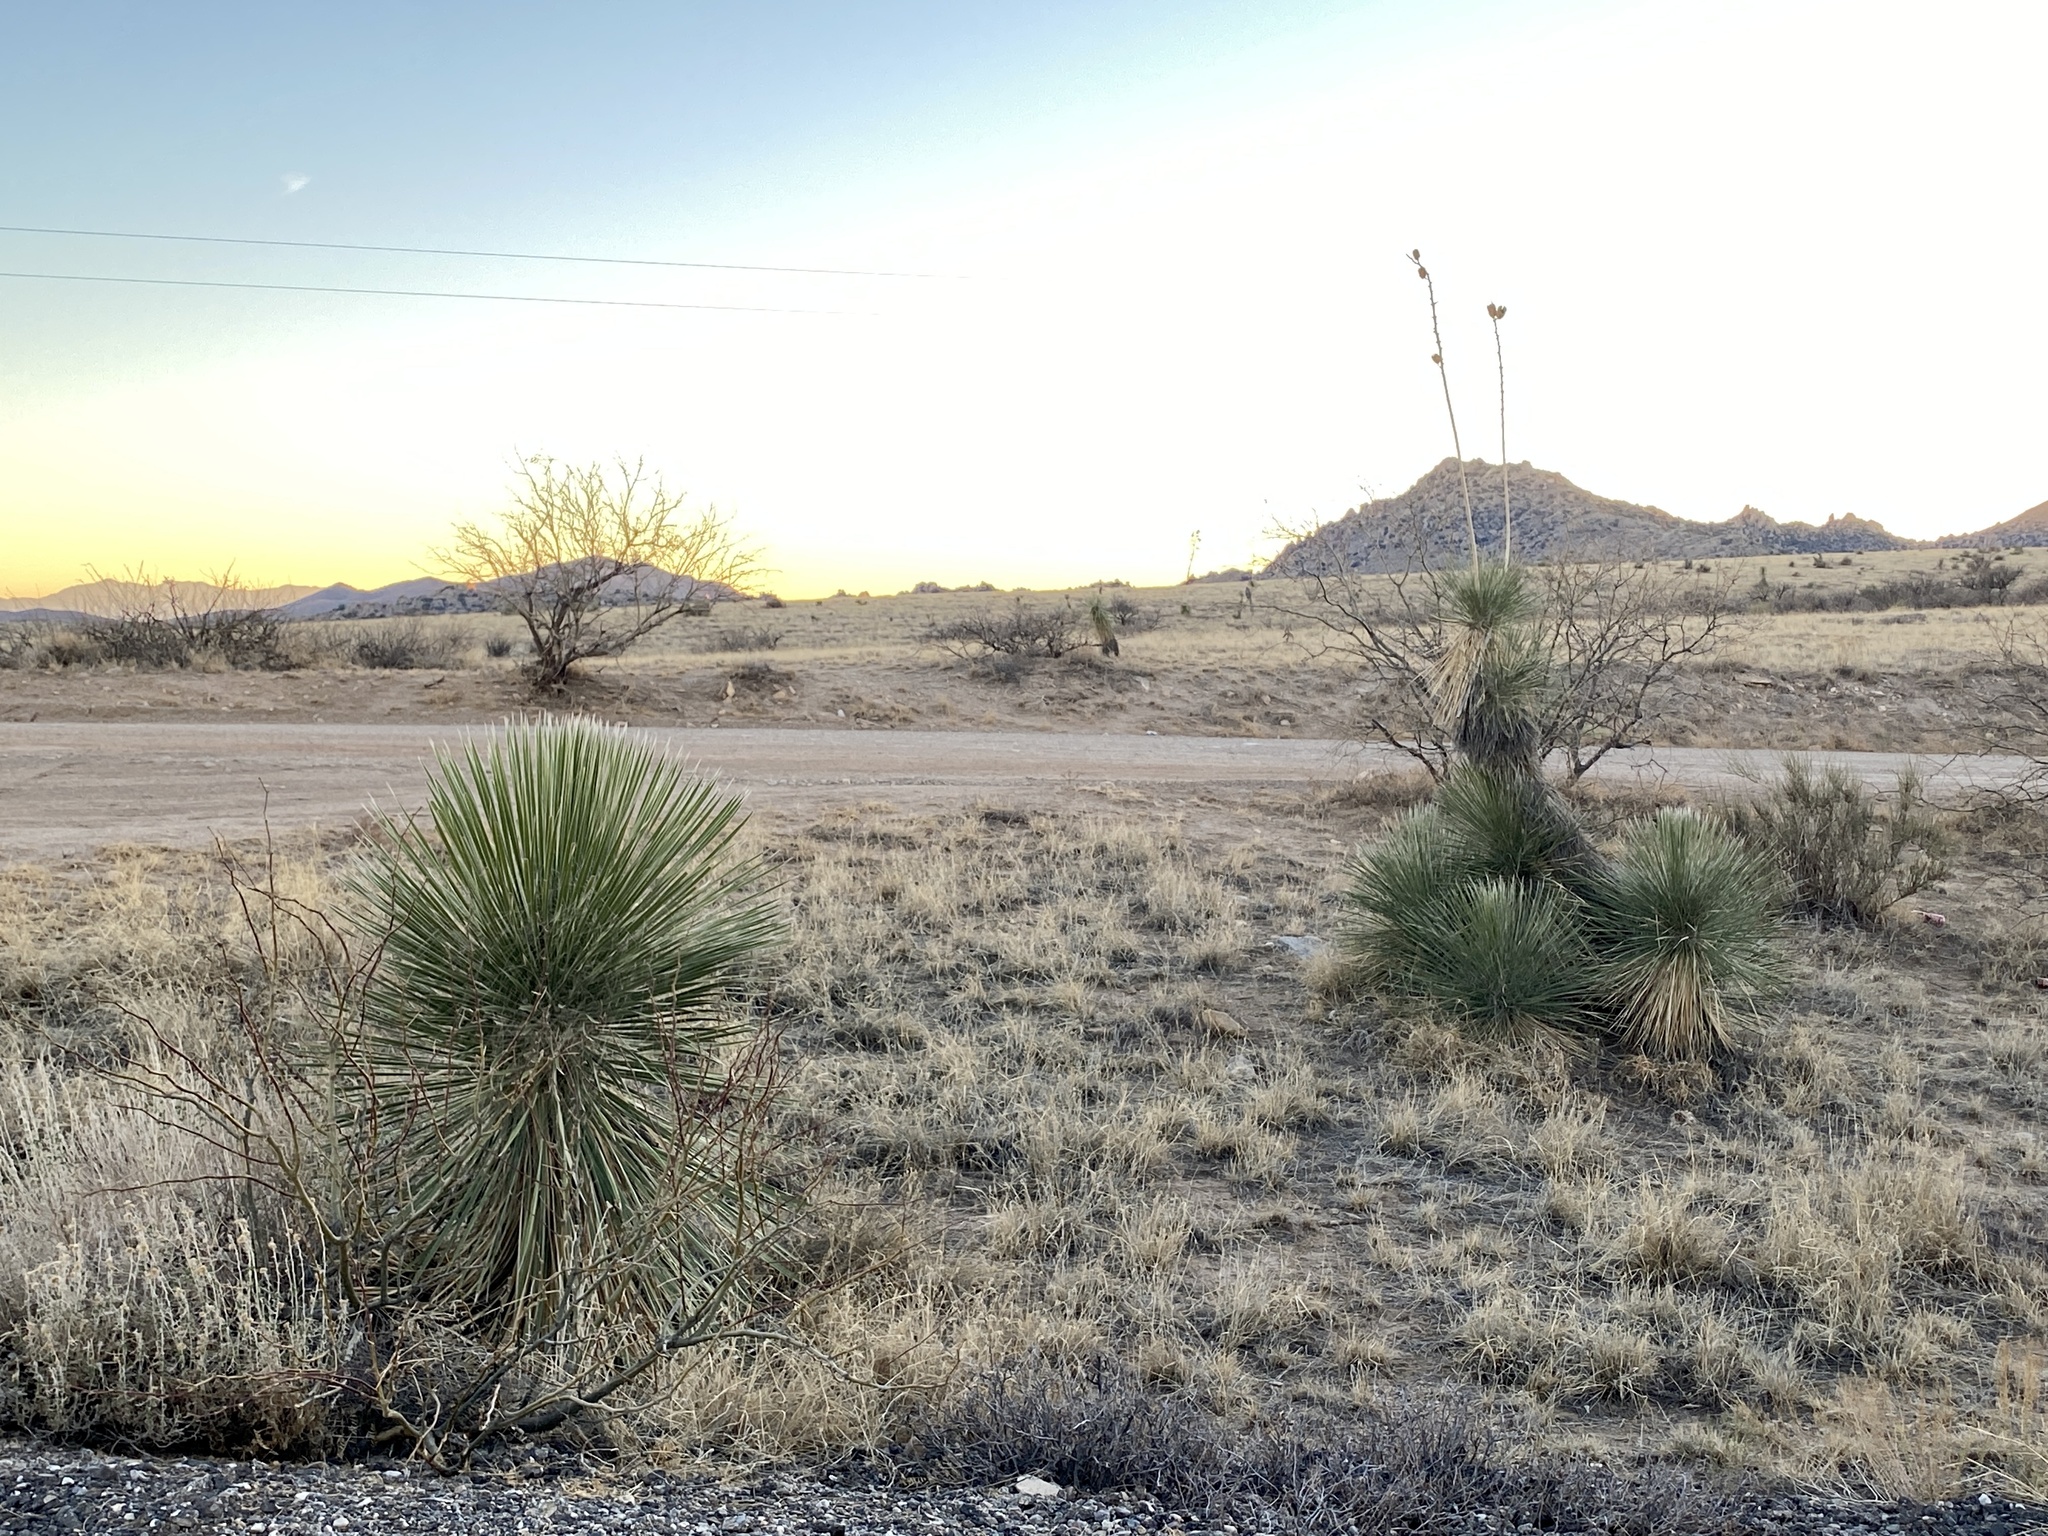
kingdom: Plantae
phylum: Tracheophyta
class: Liliopsida
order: Asparagales
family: Asparagaceae
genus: Yucca
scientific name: Yucca elata
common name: Palmella
